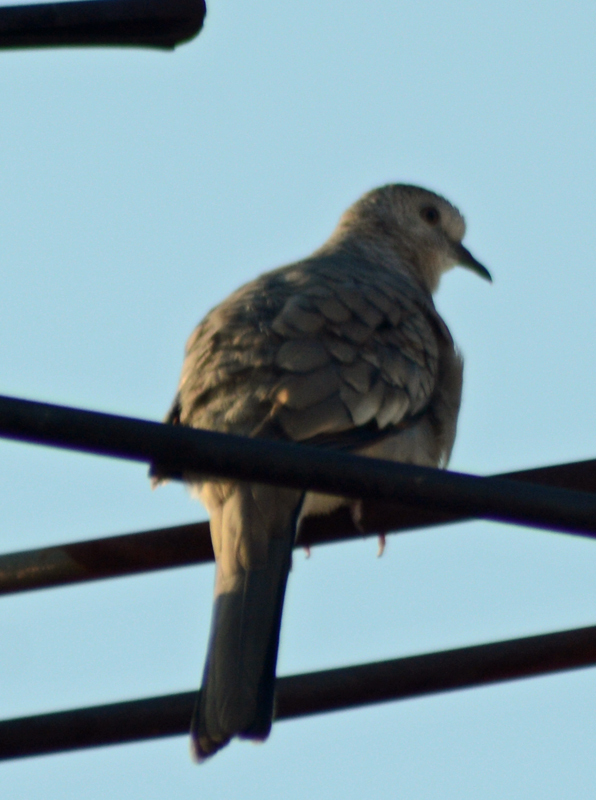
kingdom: Animalia
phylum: Chordata
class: Aves
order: Columbiformes
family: Columbidae
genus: Columbina
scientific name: Columbina inca
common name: Inca dove
